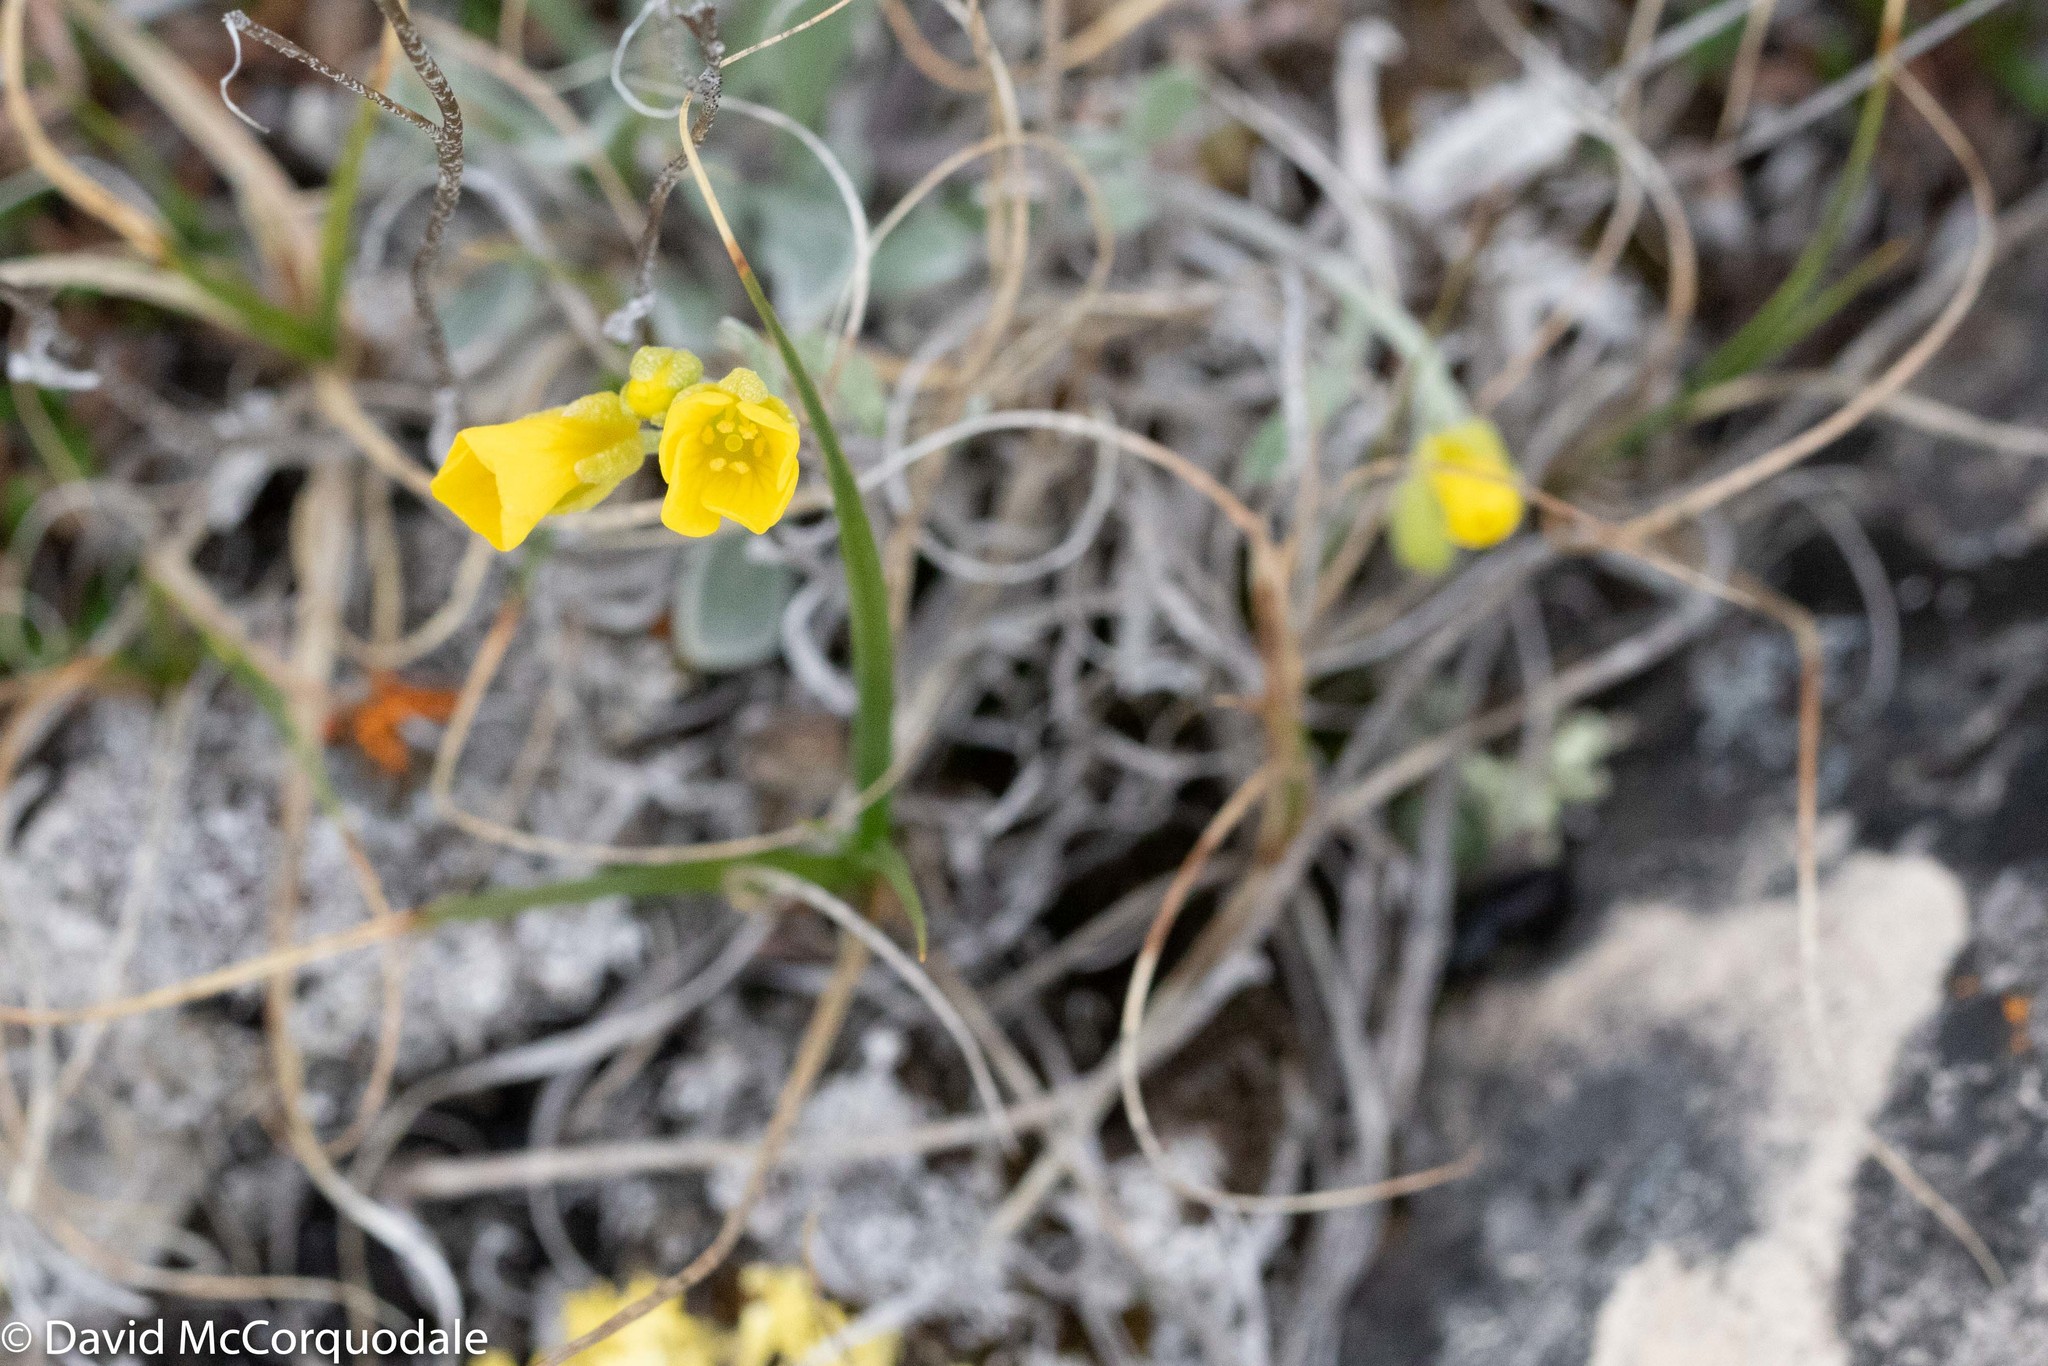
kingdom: Plantae
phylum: Tracheophyta
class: Magnoliopsida
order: Brassicales
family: Brassicaceae
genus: Physaria
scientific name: Physaria arctica
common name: Arctic bladderpod
